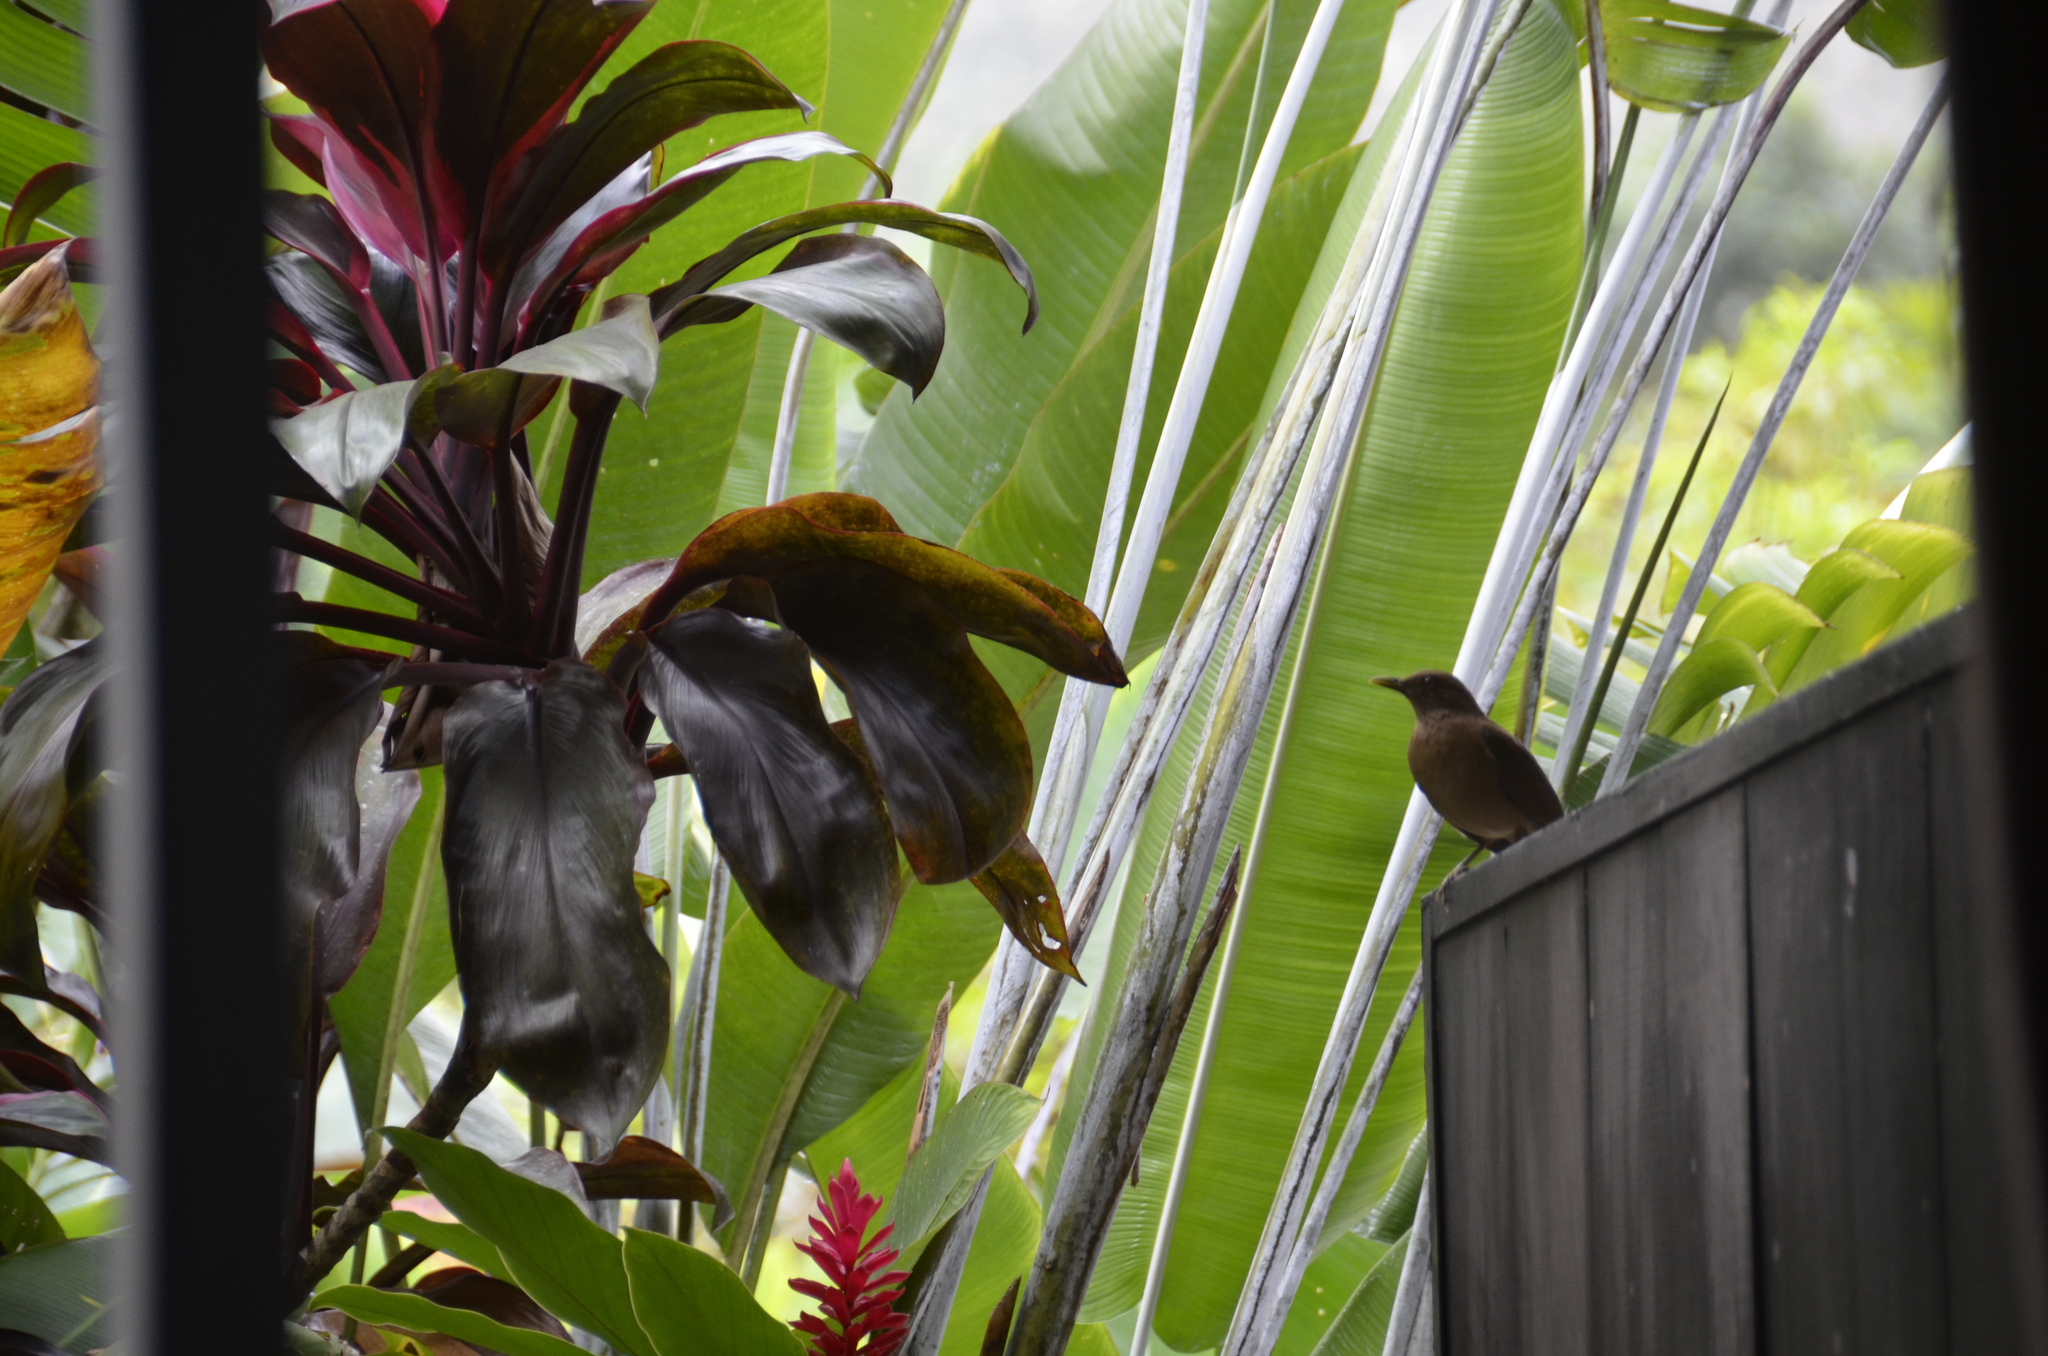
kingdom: Animalia
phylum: Chordata
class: Aves
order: Passeriformes
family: Turdidae
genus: Turdus
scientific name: Turdus grayi
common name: Clay-colored thrush
